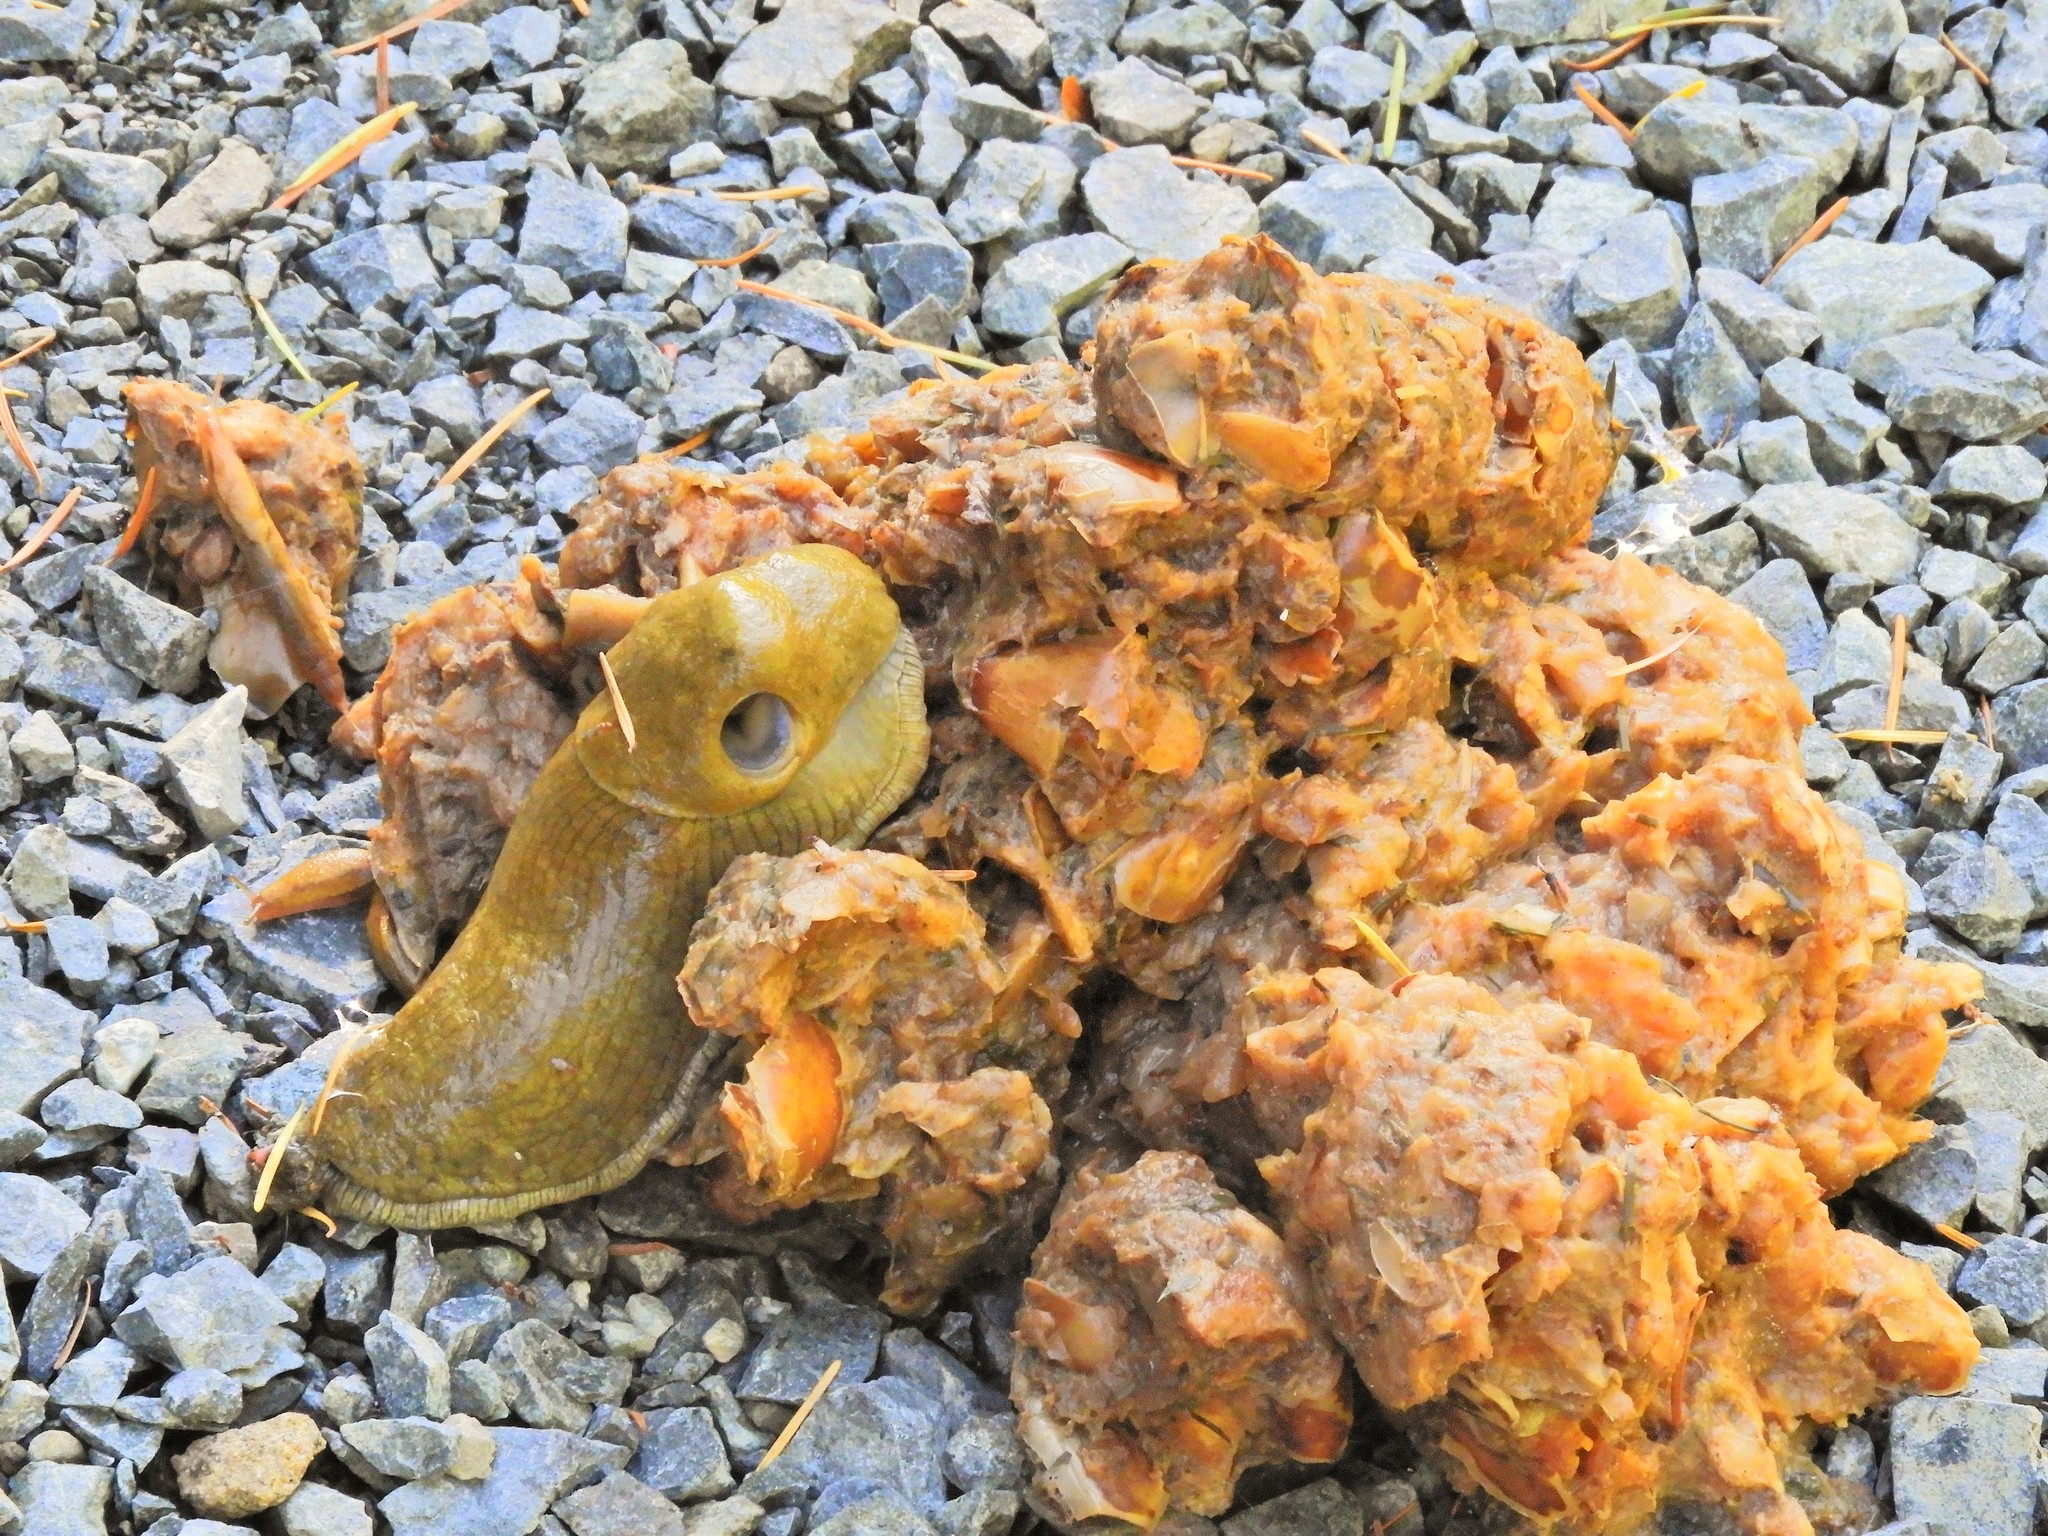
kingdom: Animalia
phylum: Mollusca
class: Gastropoda
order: Stylommatophora
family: Ariolimacidae
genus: Ariolimax
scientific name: Ariolimax columbianus
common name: Pacific banana slug
